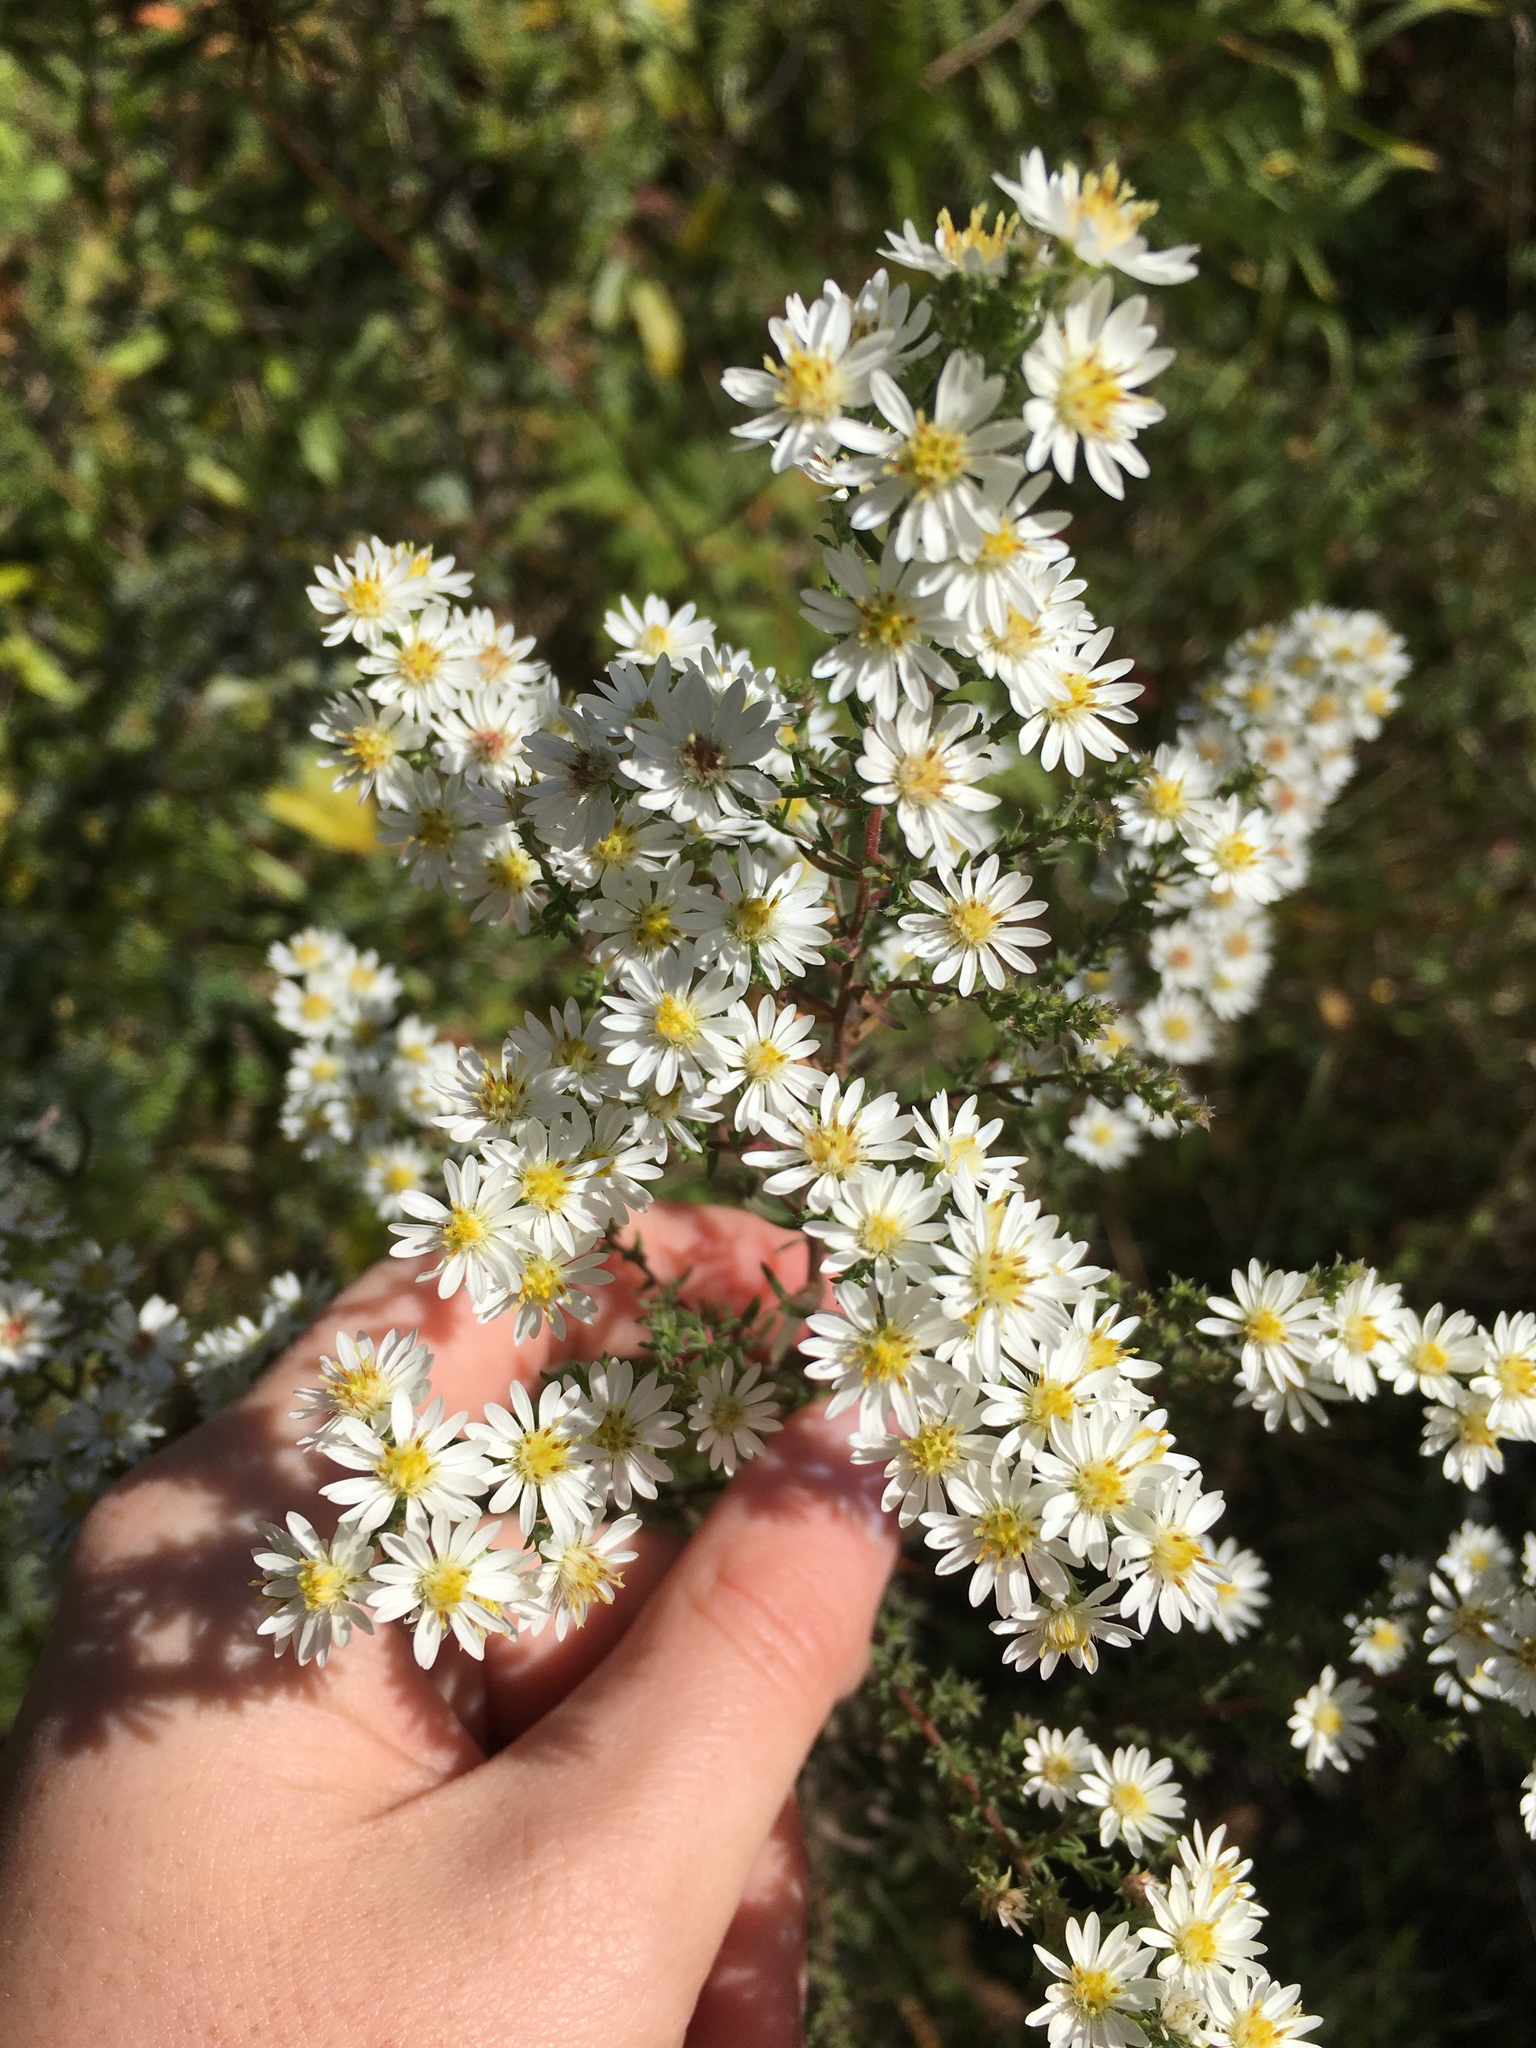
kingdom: Plantae
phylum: Tracheophyta
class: Magnoliopsida
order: Asterales
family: Asteraceae
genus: Symphyotrichum
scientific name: Symphyotrichum ericoides
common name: Heath aster
